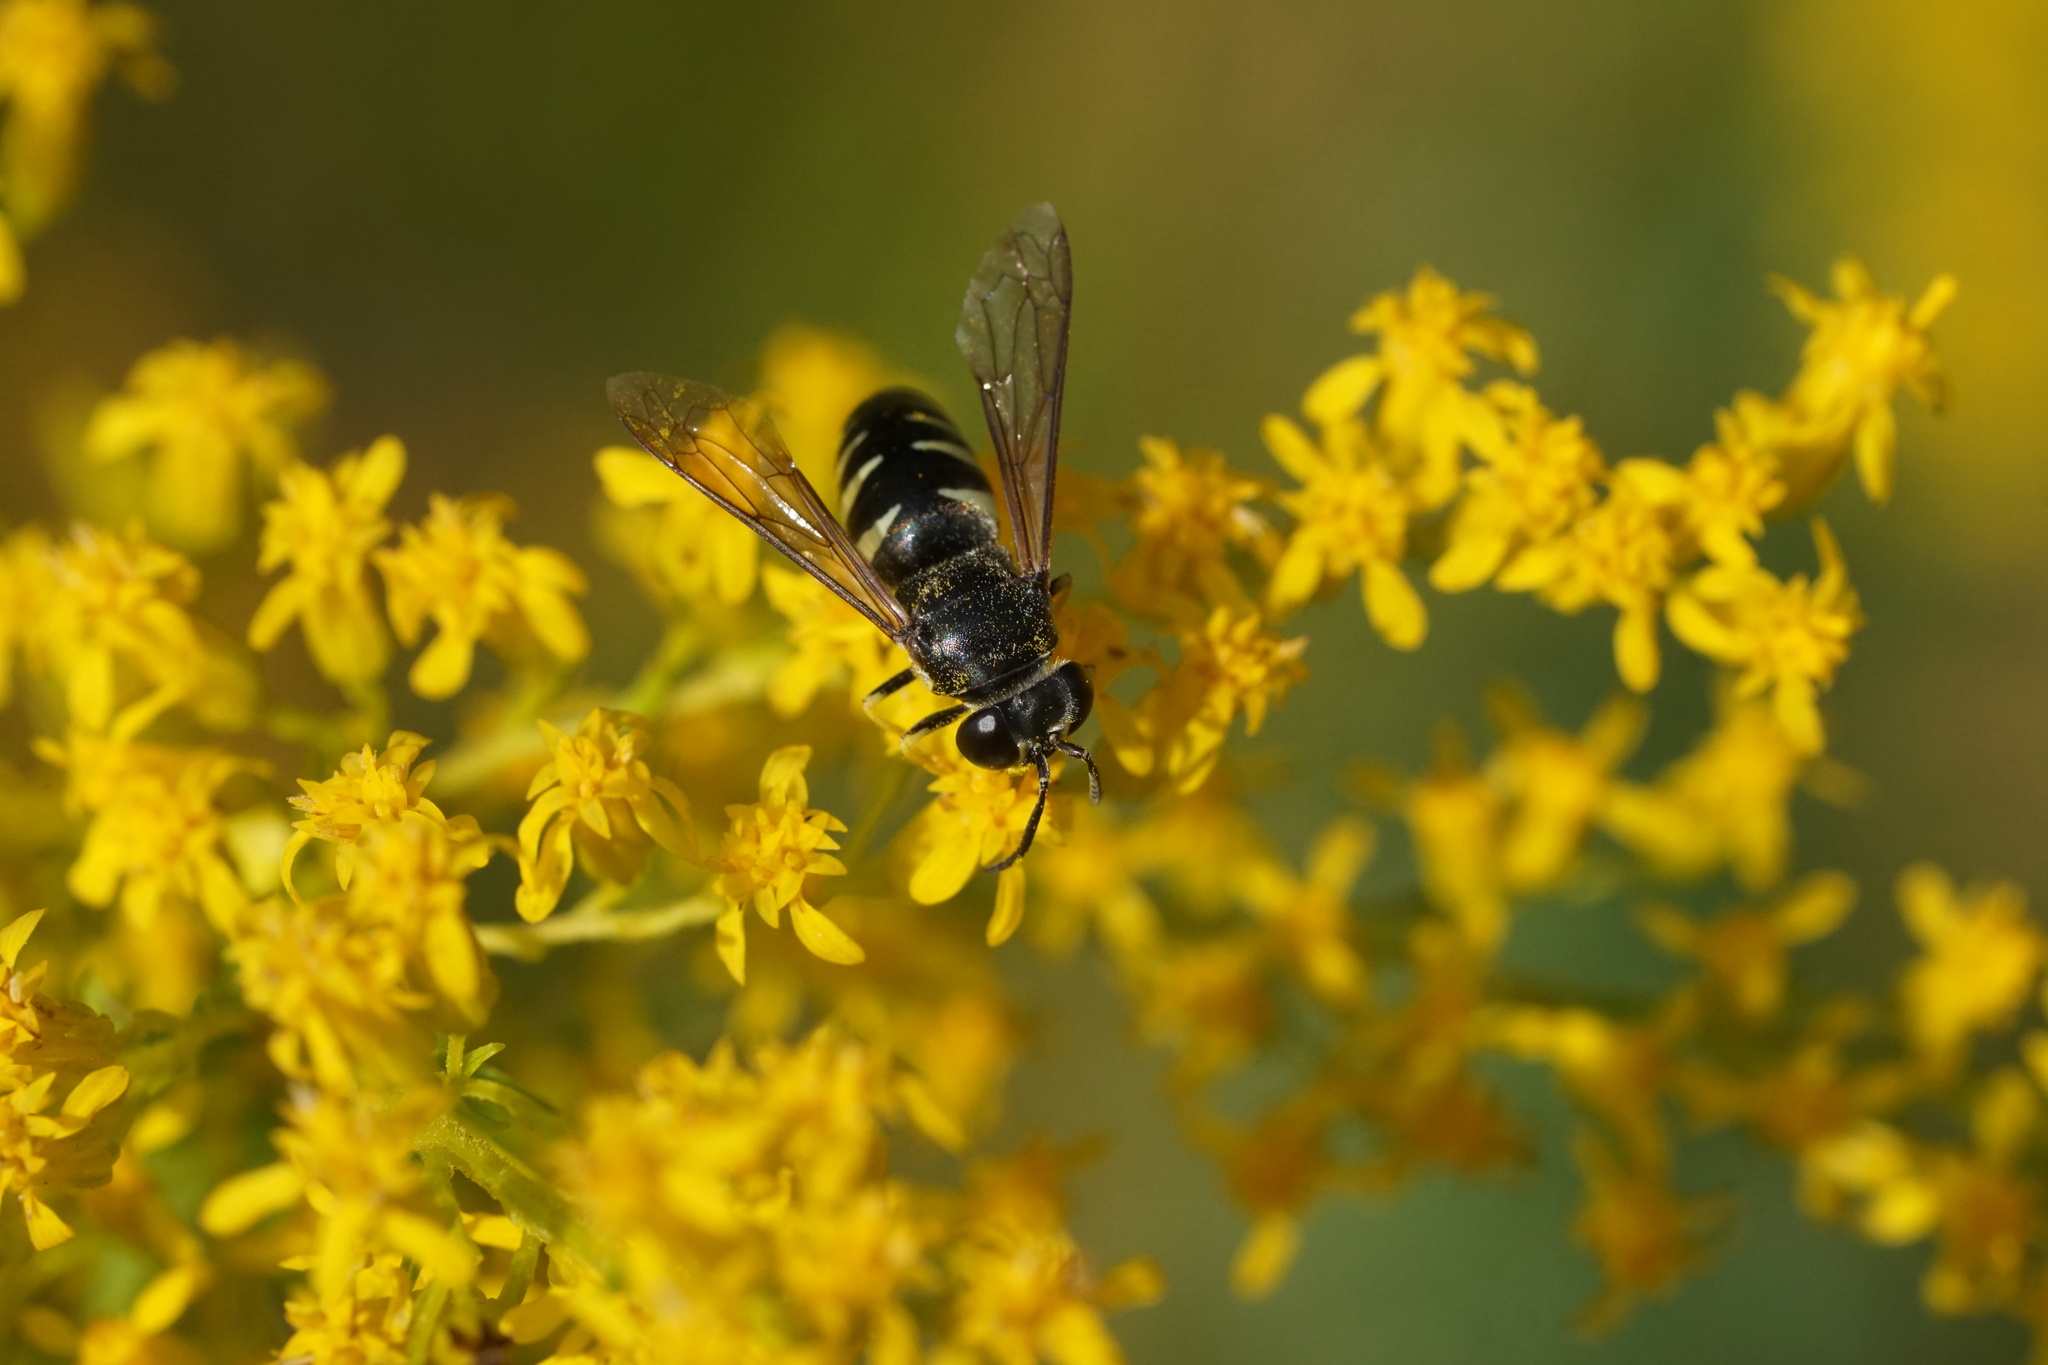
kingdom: Animalia
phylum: Arthropoda
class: Insecta
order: Hymenoptera
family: Crabronidae
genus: Bicyrtes
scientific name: Bicyrtes quadrifasciatus
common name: Four-banded stink bug hunter wasp
